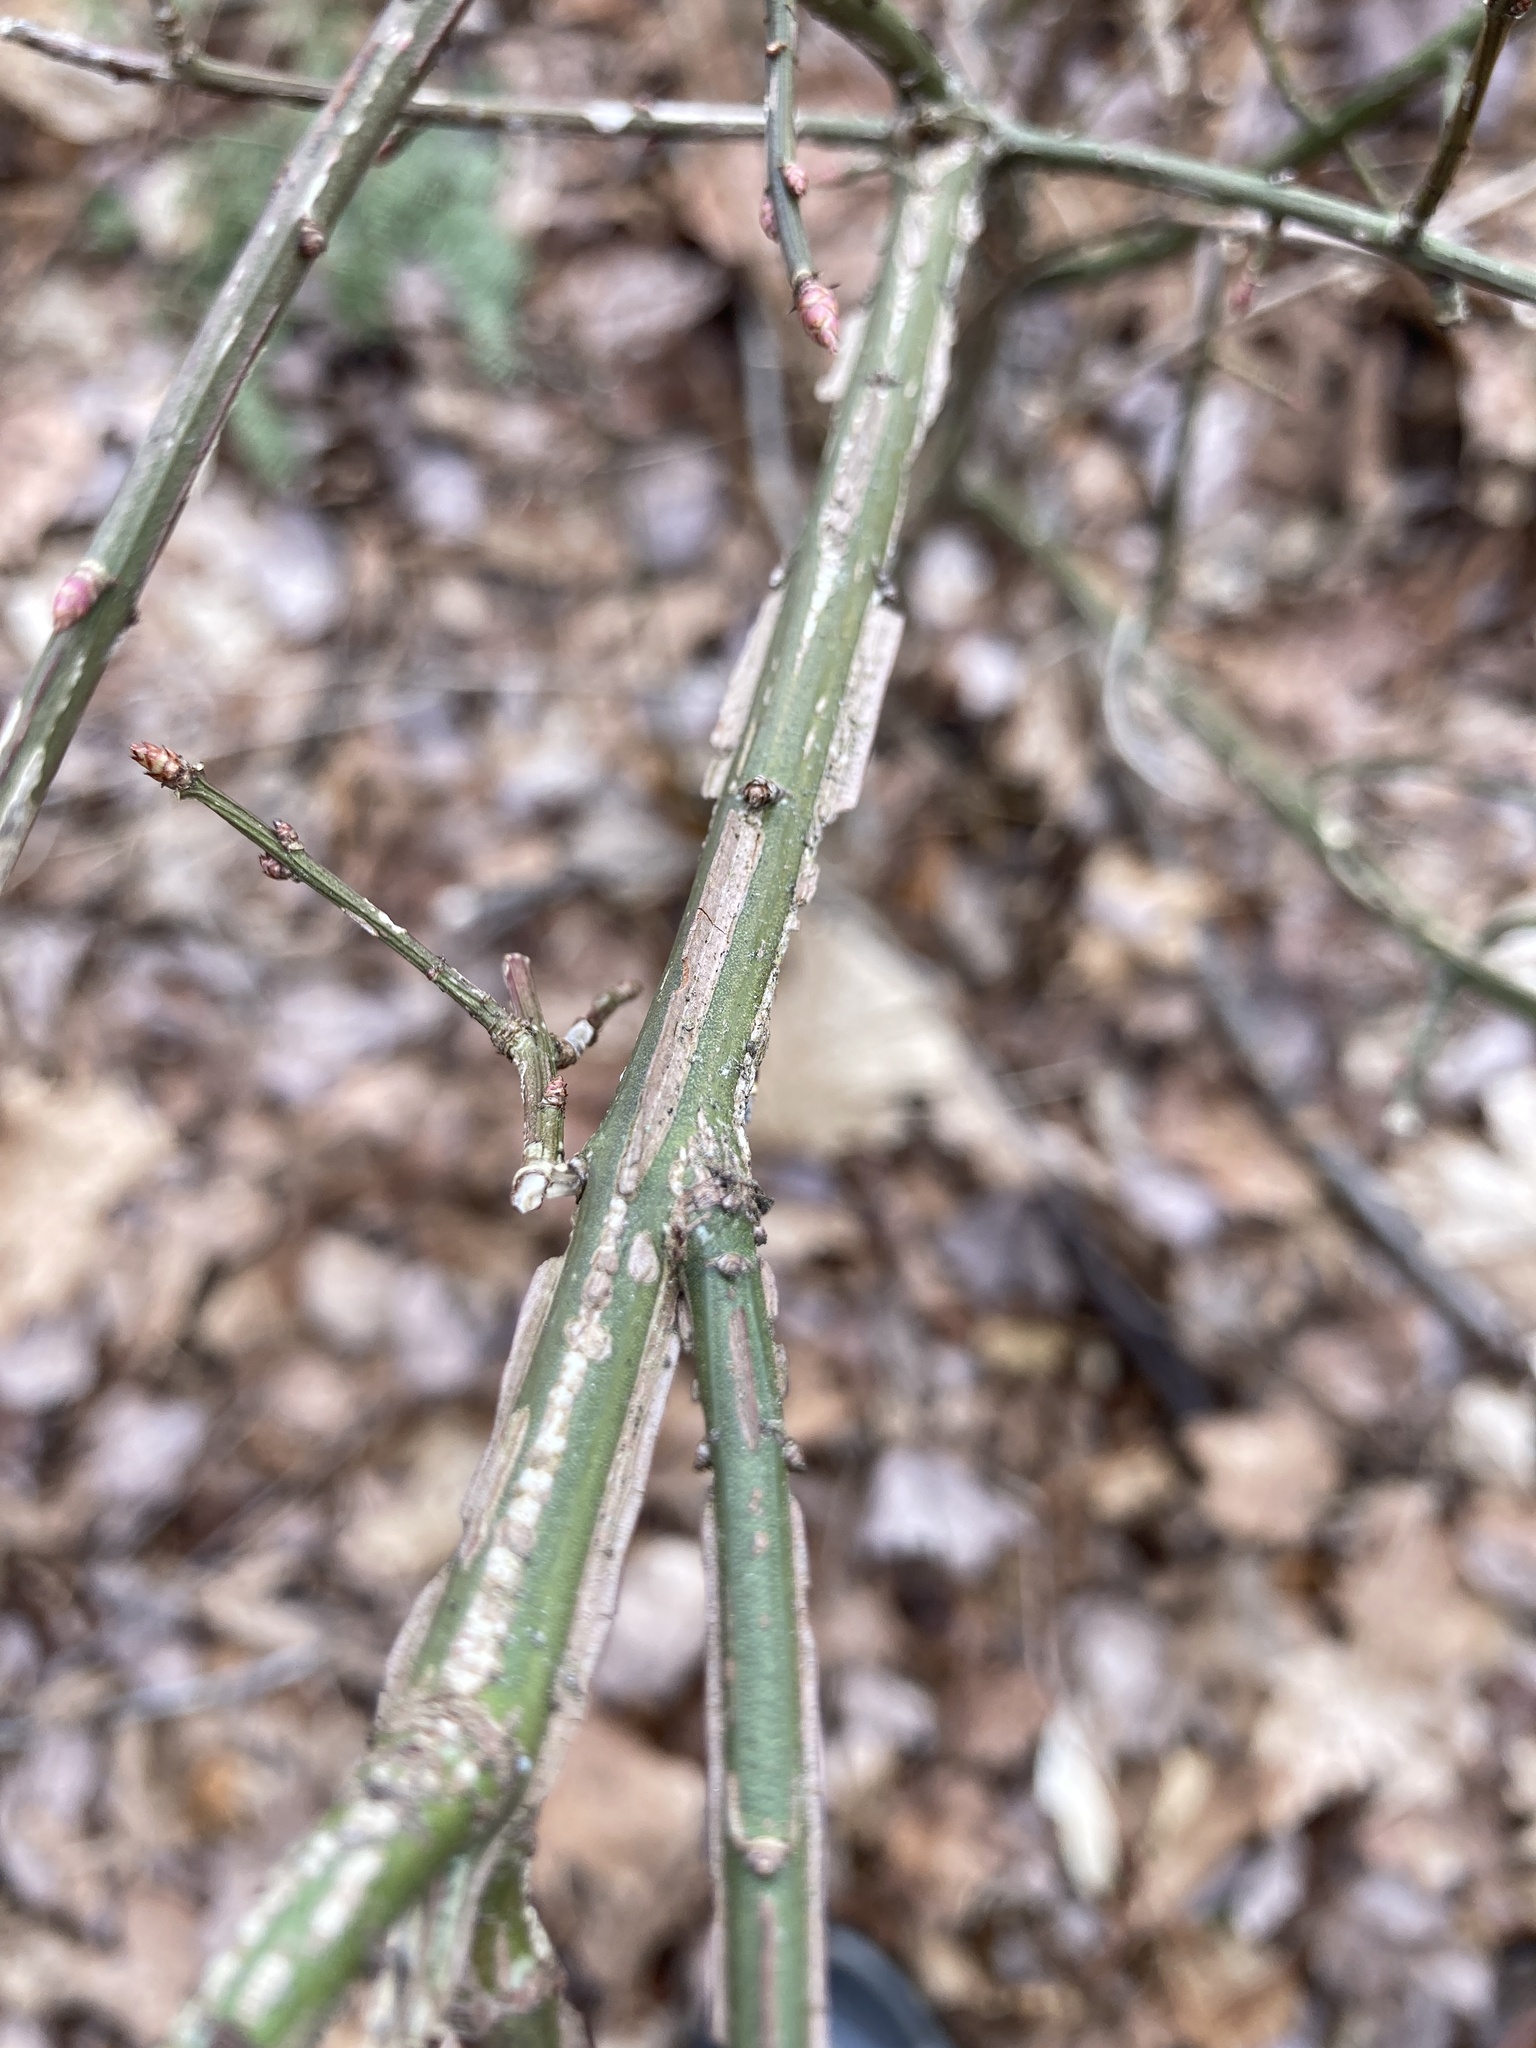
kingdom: Plantae
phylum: Tracheophyta
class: Magnoliopsida
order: Celastrales
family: Celastraceae
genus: Euonymus
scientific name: Euonymus alatus
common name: Winged euonymus
